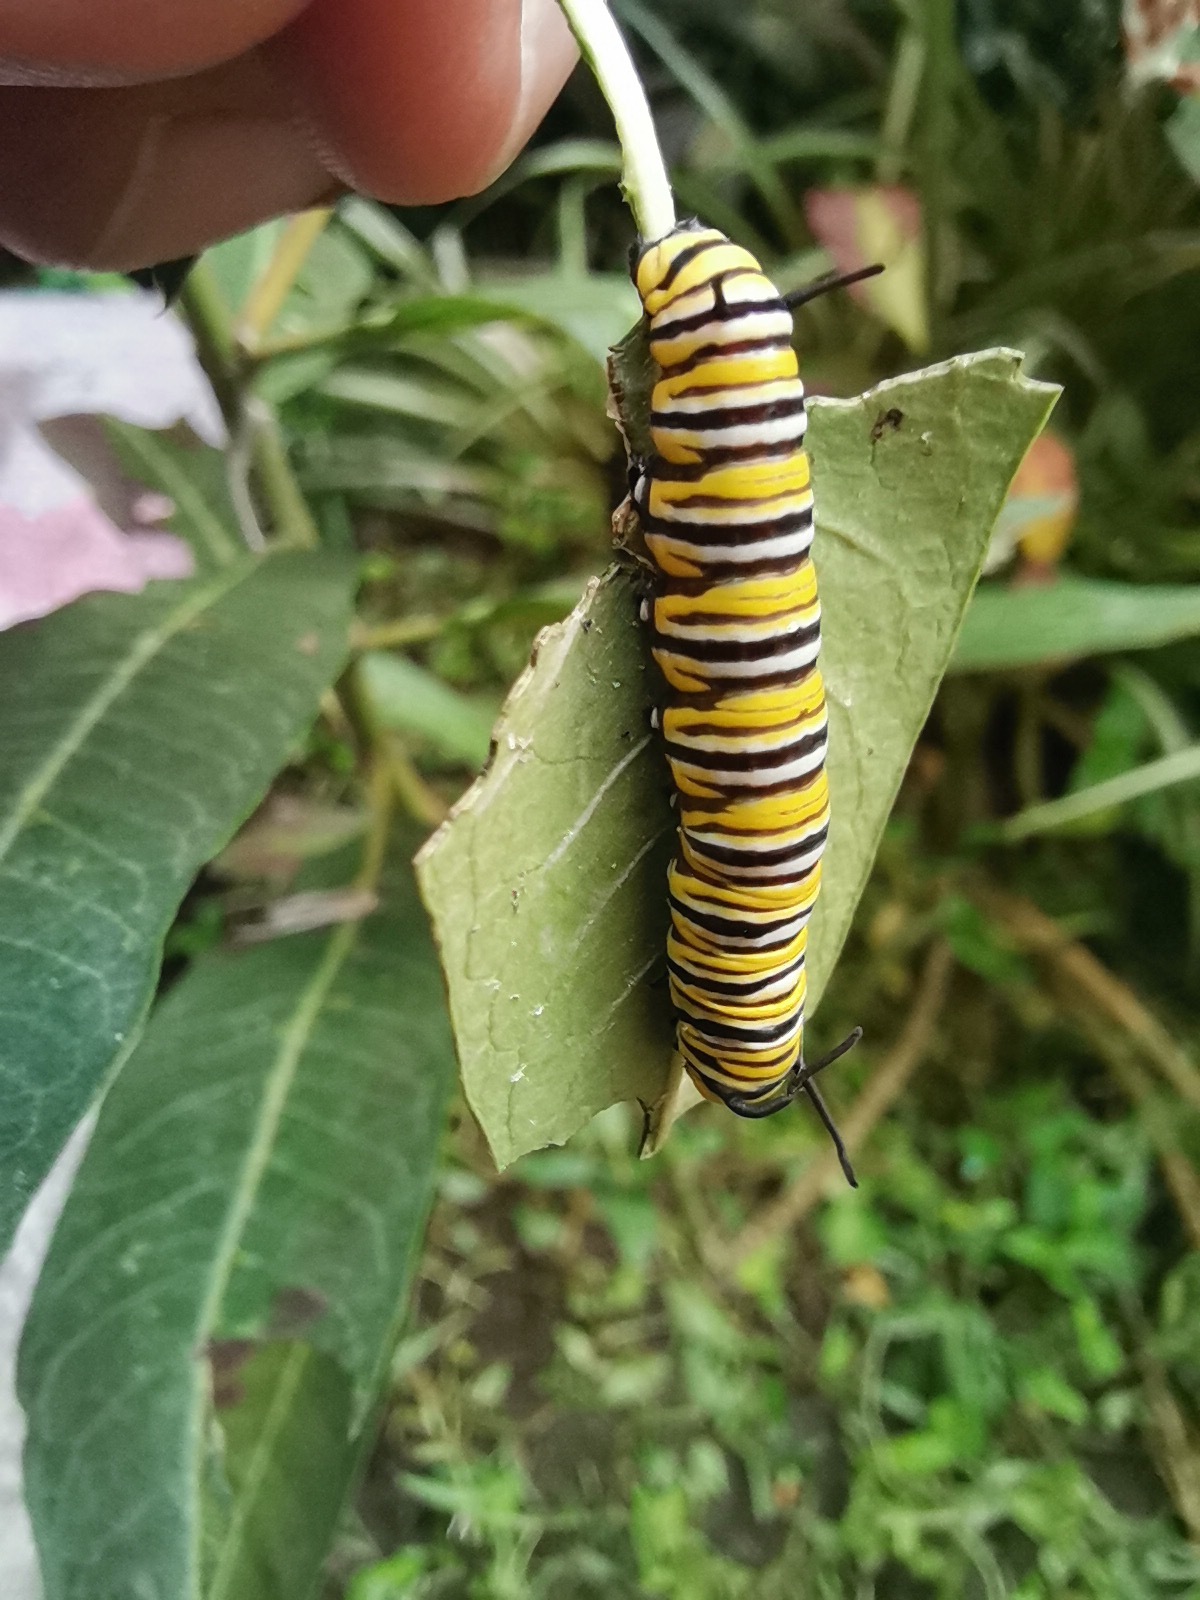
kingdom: Animalia
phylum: Arthropoda
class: Insecta
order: Lepidoptera
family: Nymphalidae
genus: Danaus
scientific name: Danaus plexippus
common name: Monarch
